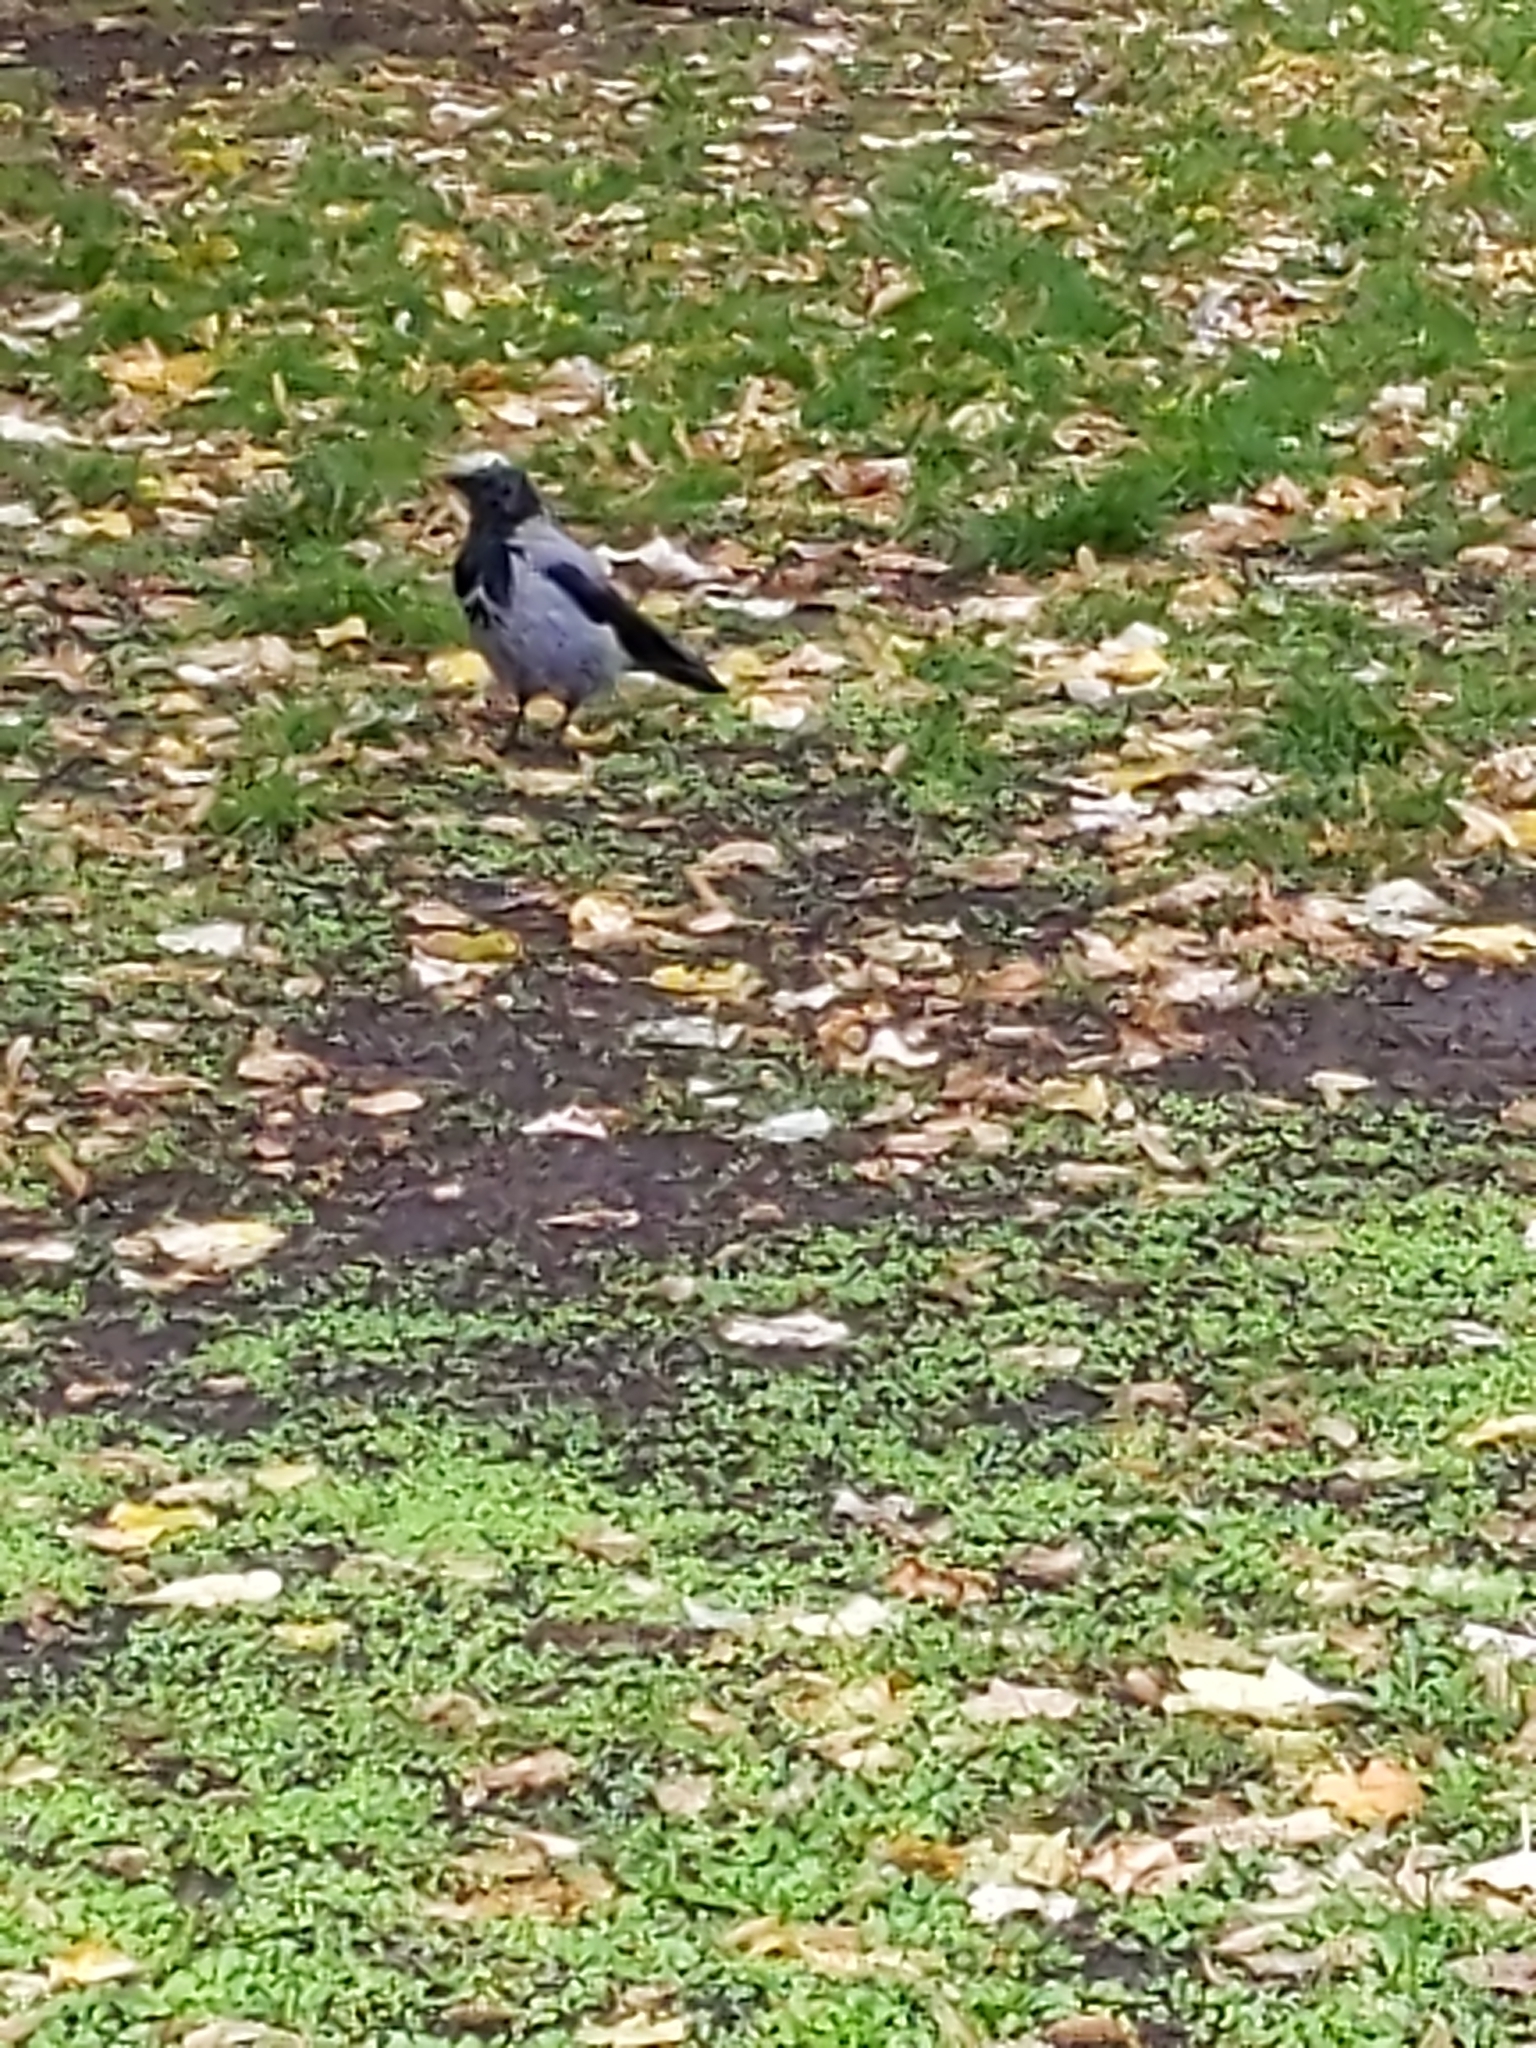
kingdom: Animalia
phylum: Chordata
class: Aves
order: Passeriformes
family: Corvidae
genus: Corvus
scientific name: Corvus cornix
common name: Hooded crow
